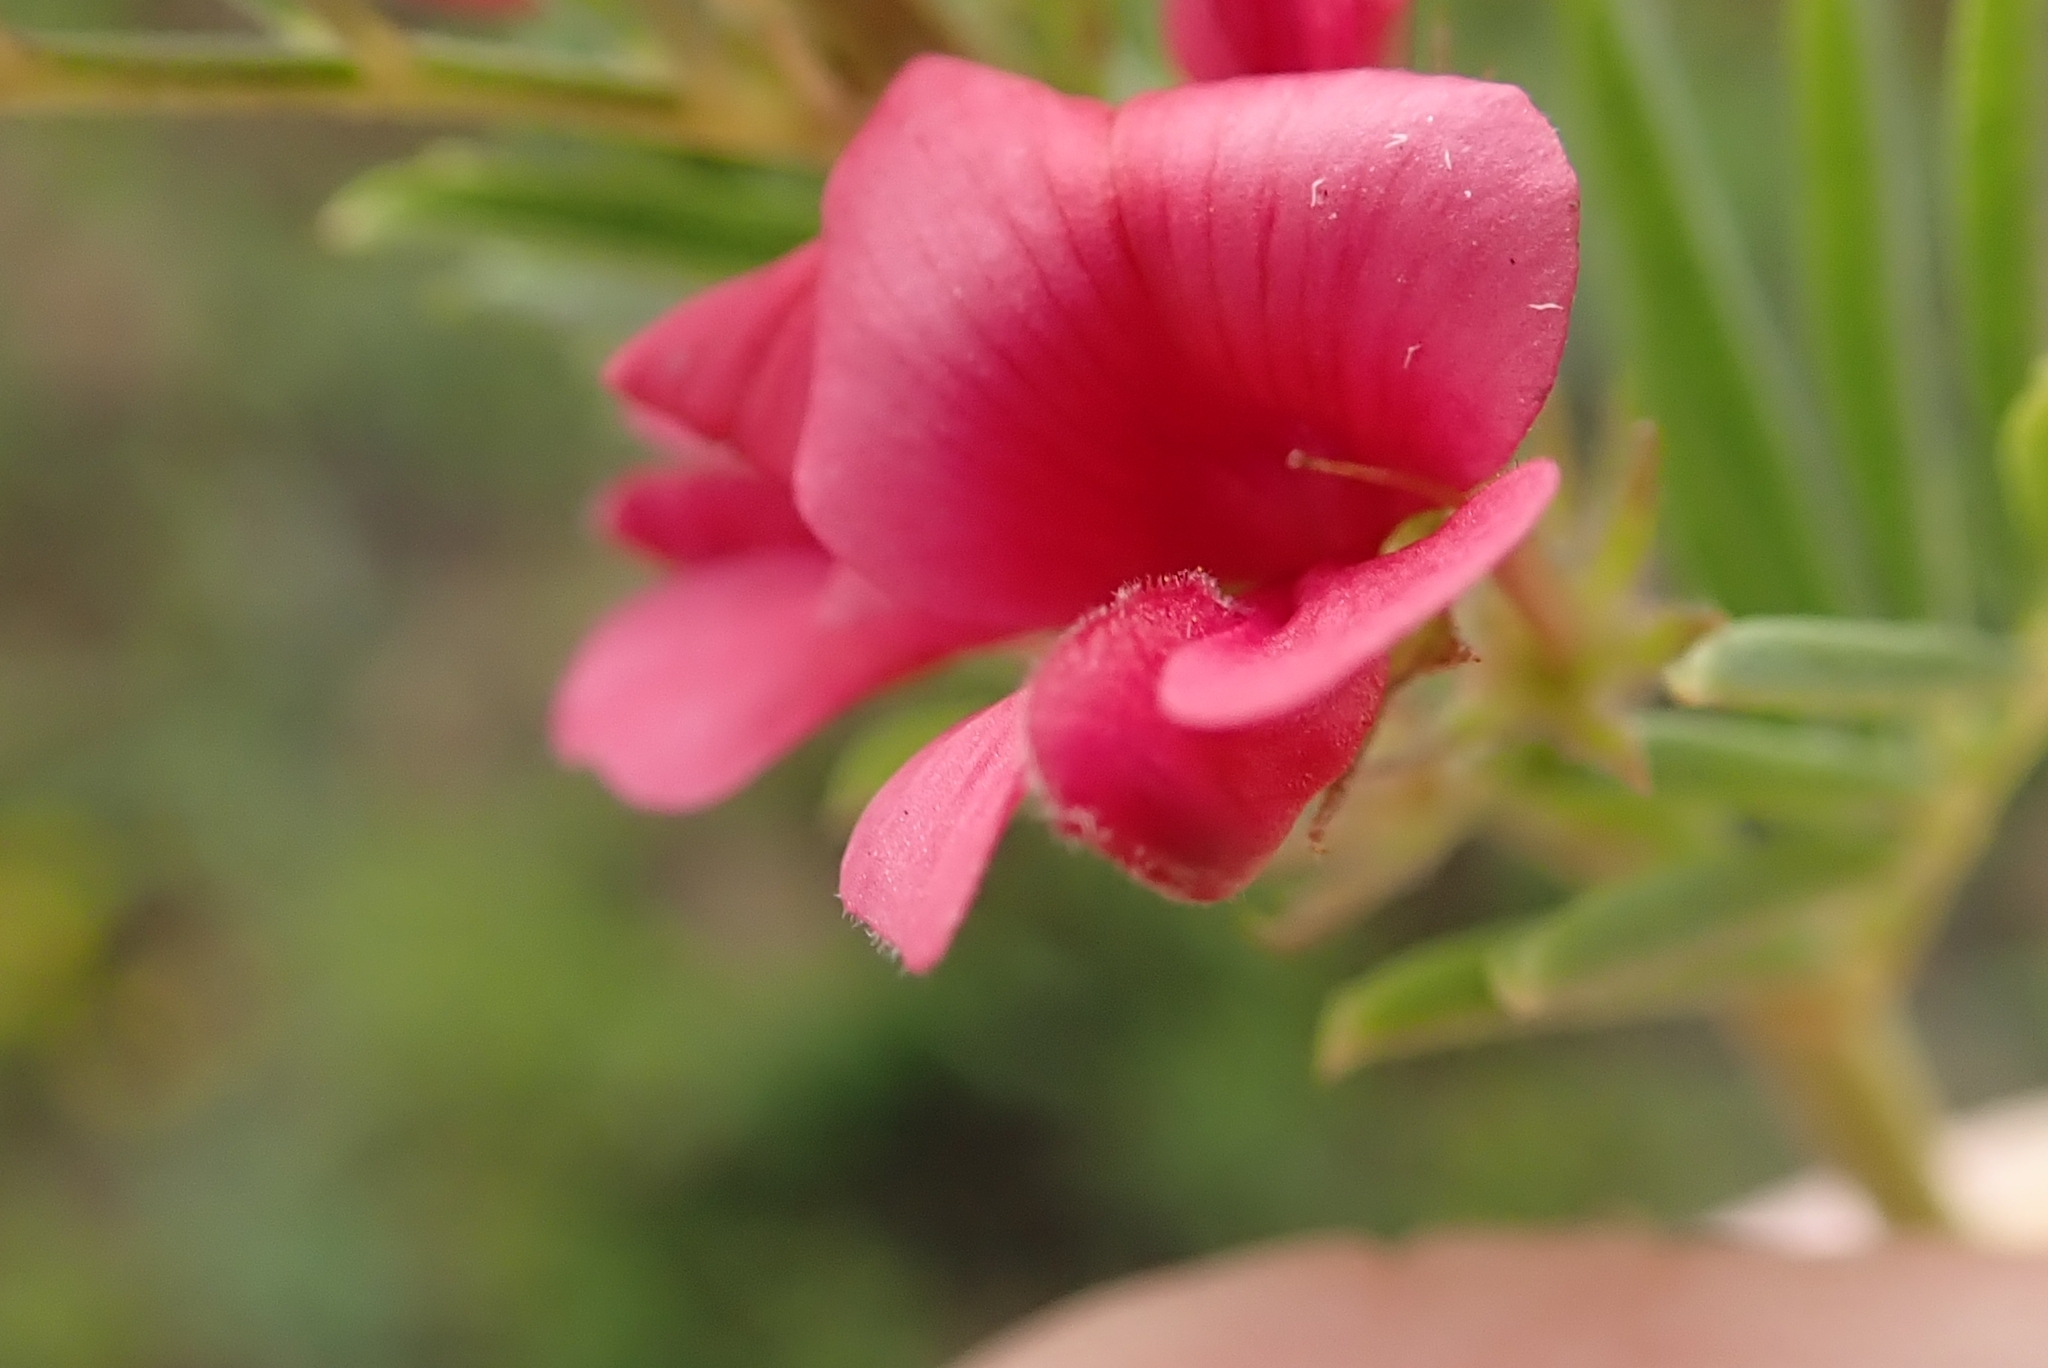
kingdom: Plantae
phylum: Tracheophyta
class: Magnoliopsida
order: Fabales
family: Fabaceae
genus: Indigofera
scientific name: Indigofera hilaris
